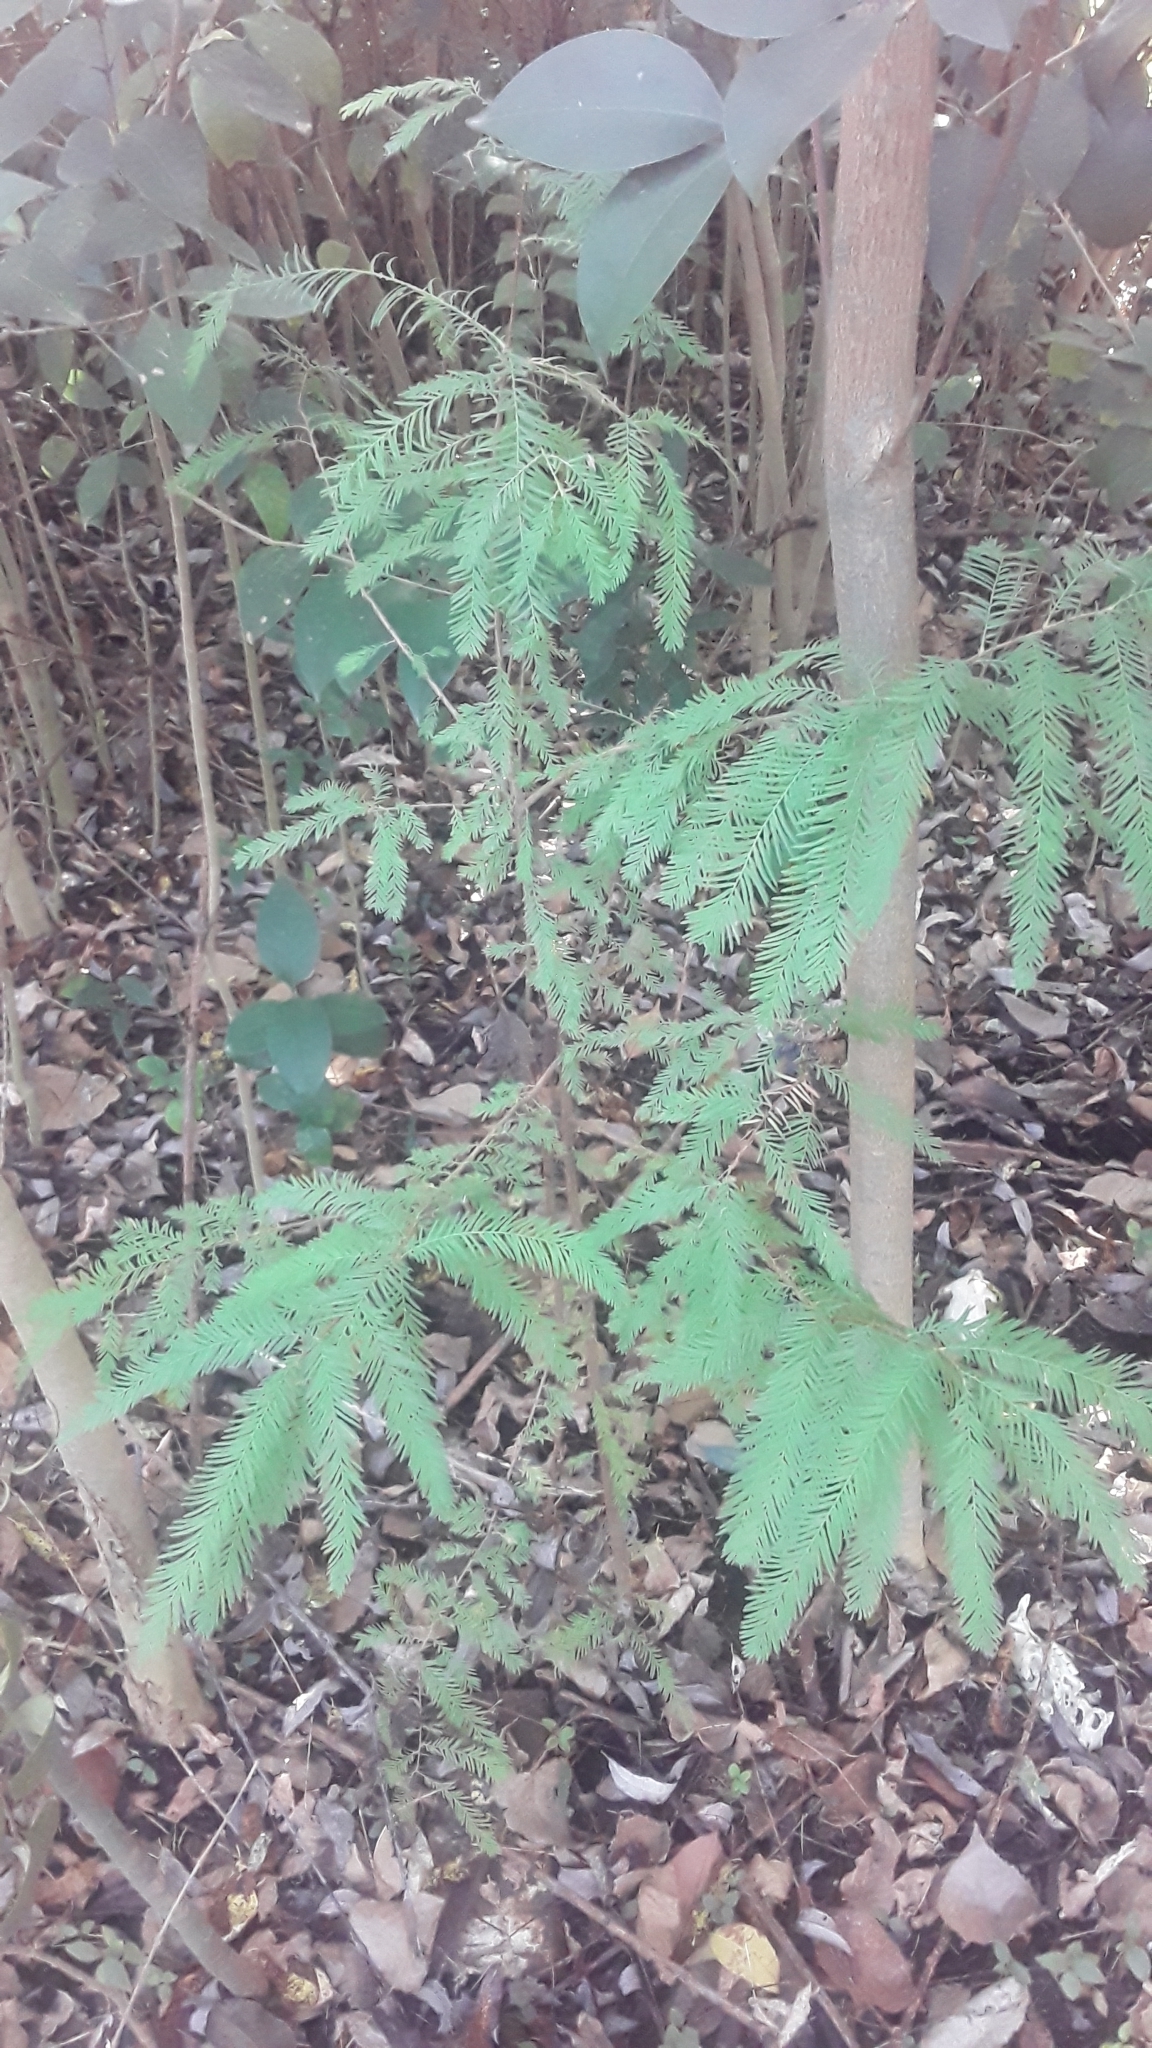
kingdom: Plantae
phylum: Tracheophyta
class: Pinopsida
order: Pinales
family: Cupressaceae
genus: Taxodium
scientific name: Taxodium distichum
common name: Bald cypress
